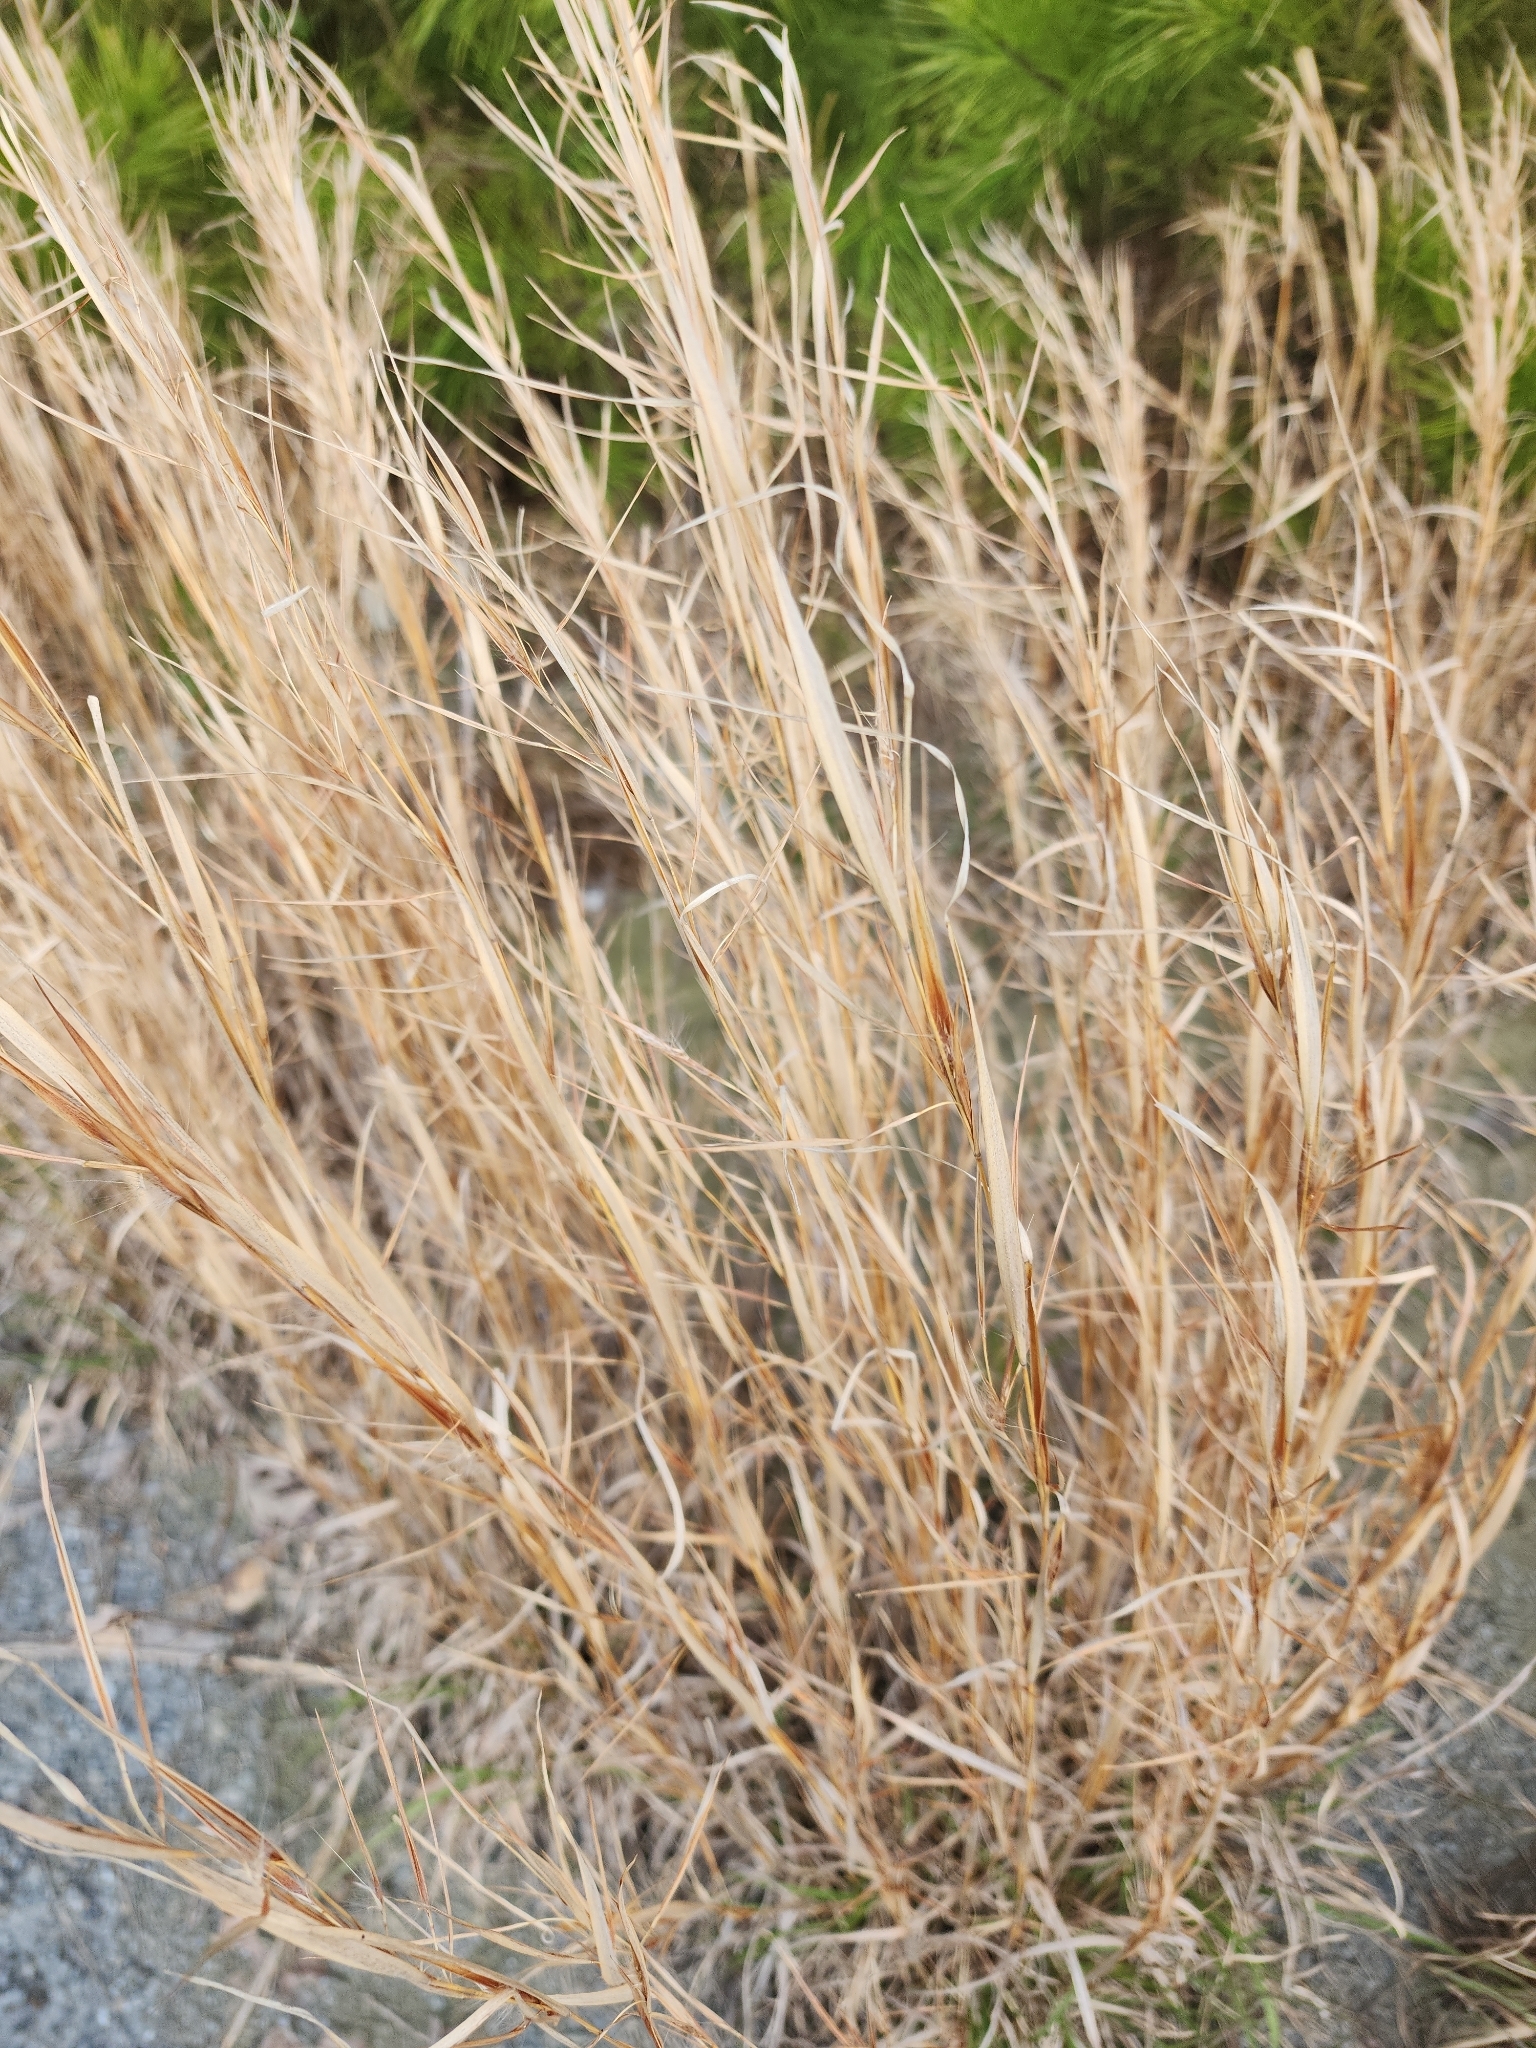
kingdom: Plantae
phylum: Tracheophyta
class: Liliopsida
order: Poales
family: Poaceae
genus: Andropogon
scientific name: Andropogon virginicus
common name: Broomsedge bluestem
